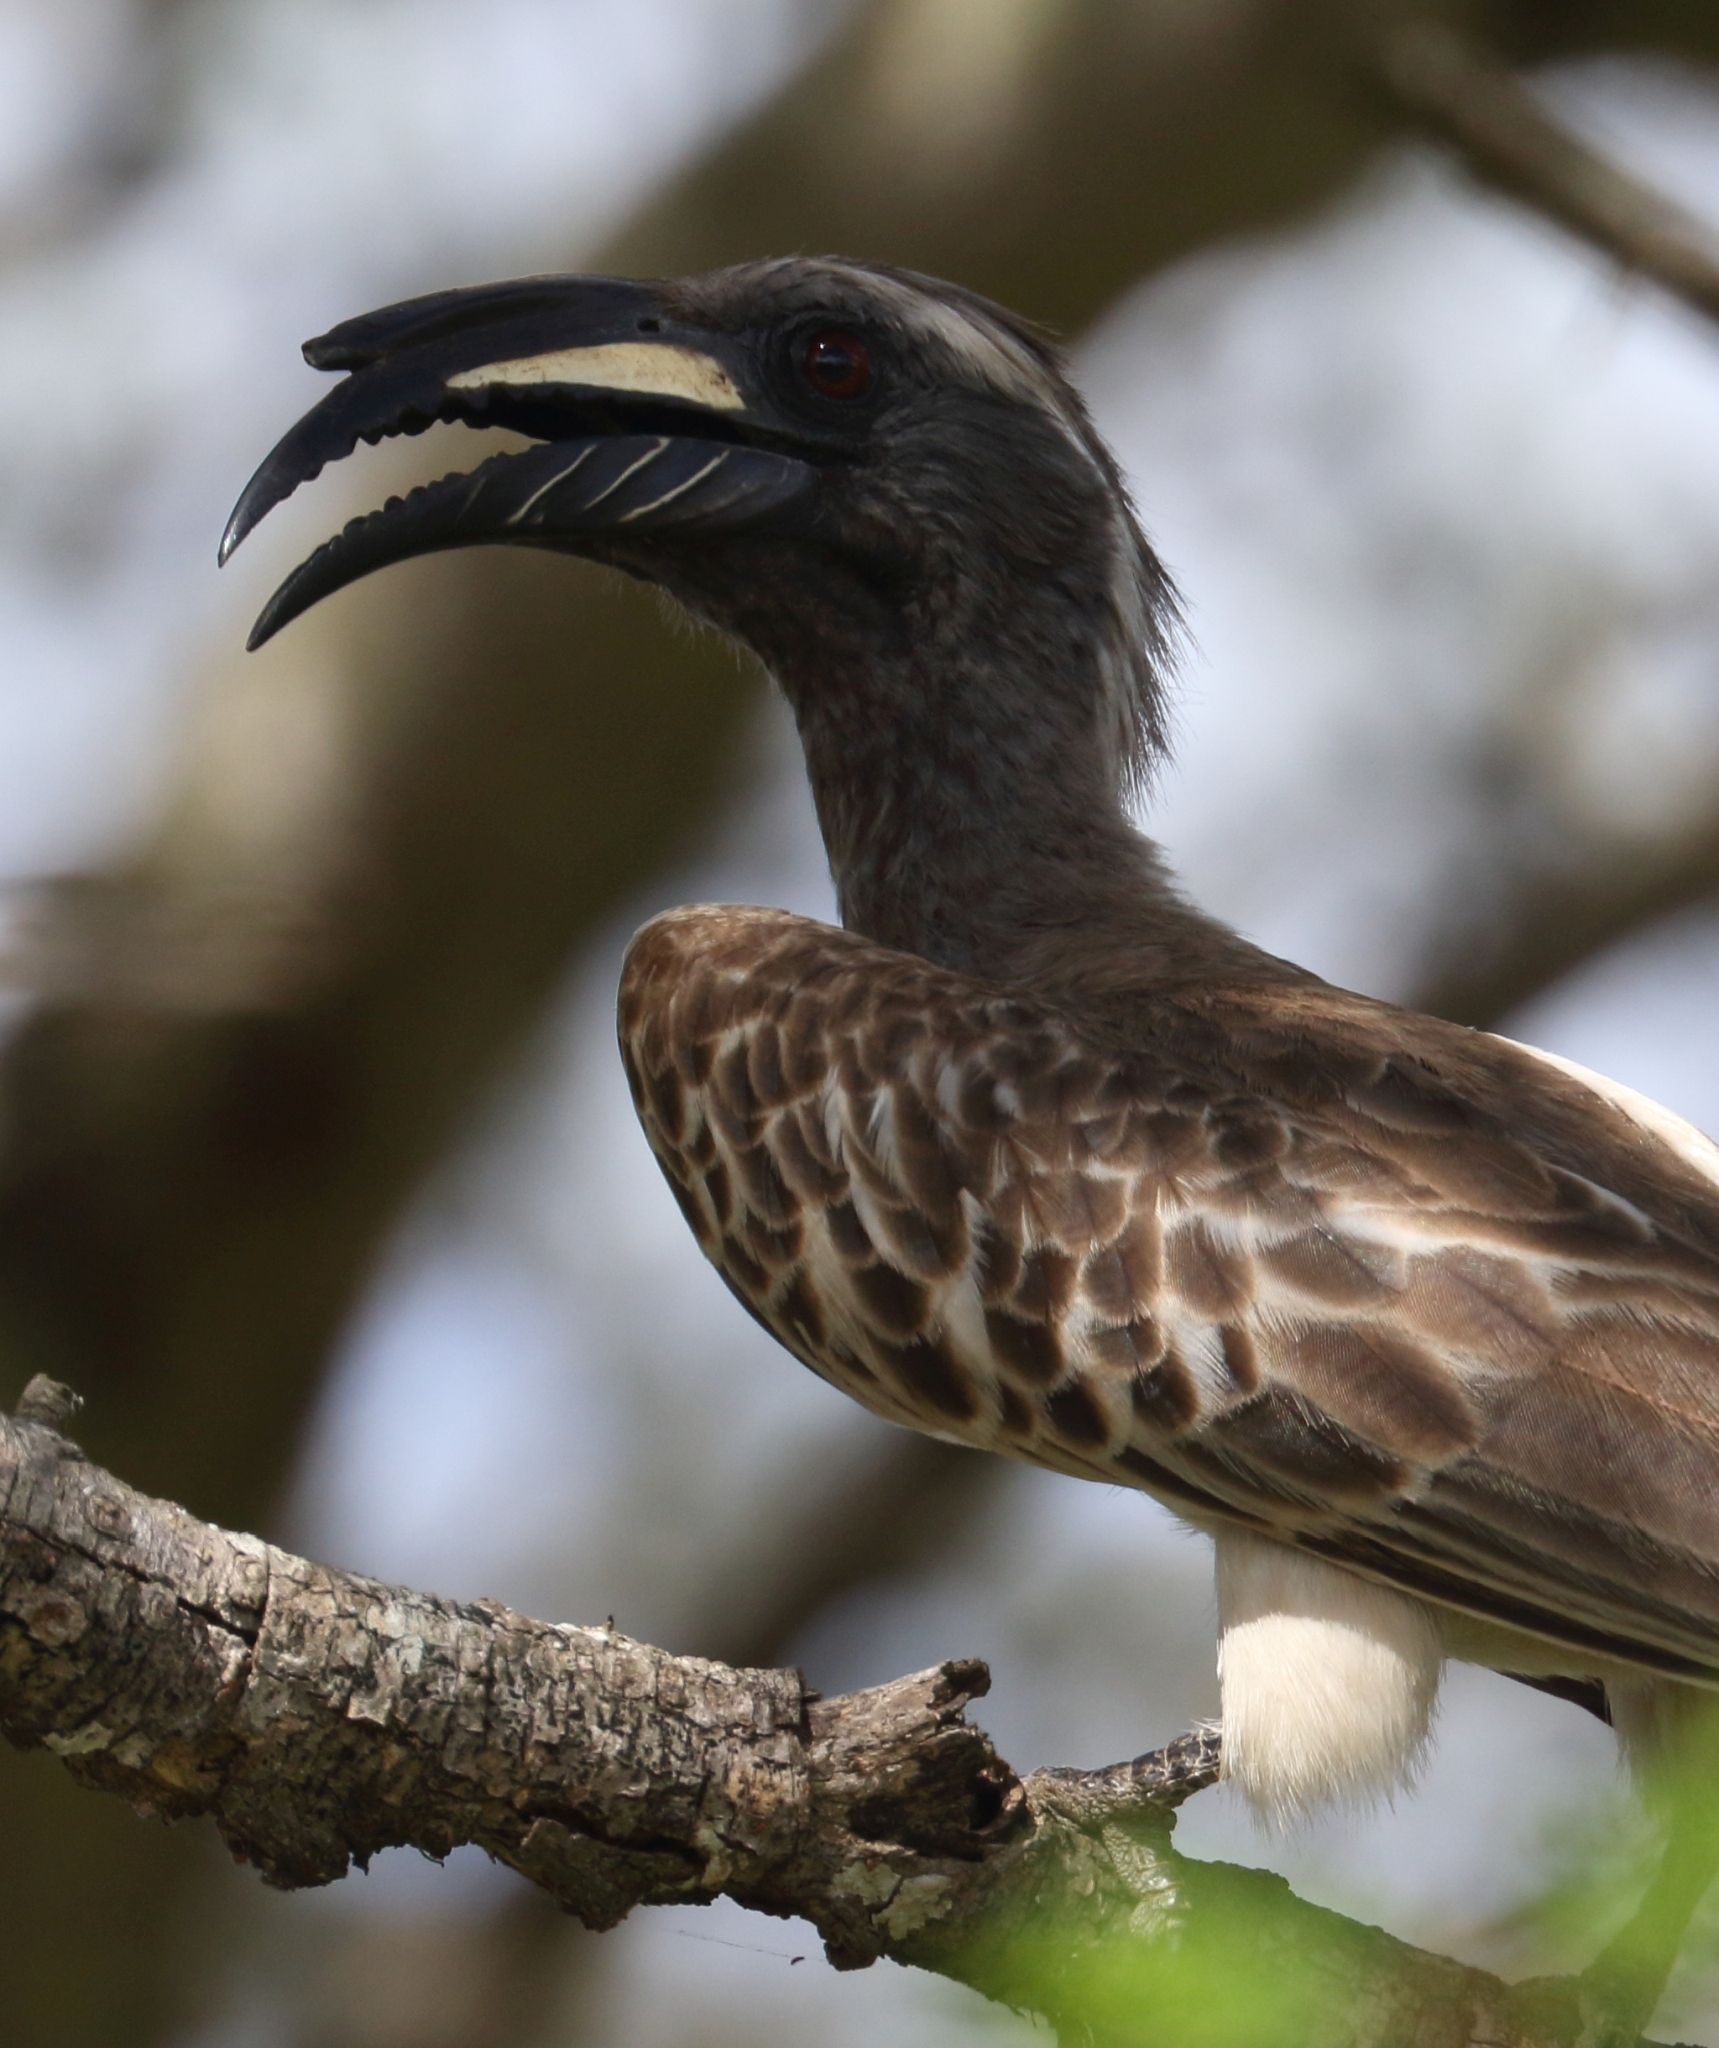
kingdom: Animalia
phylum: Chordata
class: Aves
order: Bucerotiformes
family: Bucerotidae
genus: Lophoceros
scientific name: Lophoceros nasutus
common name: African grey hornbill
